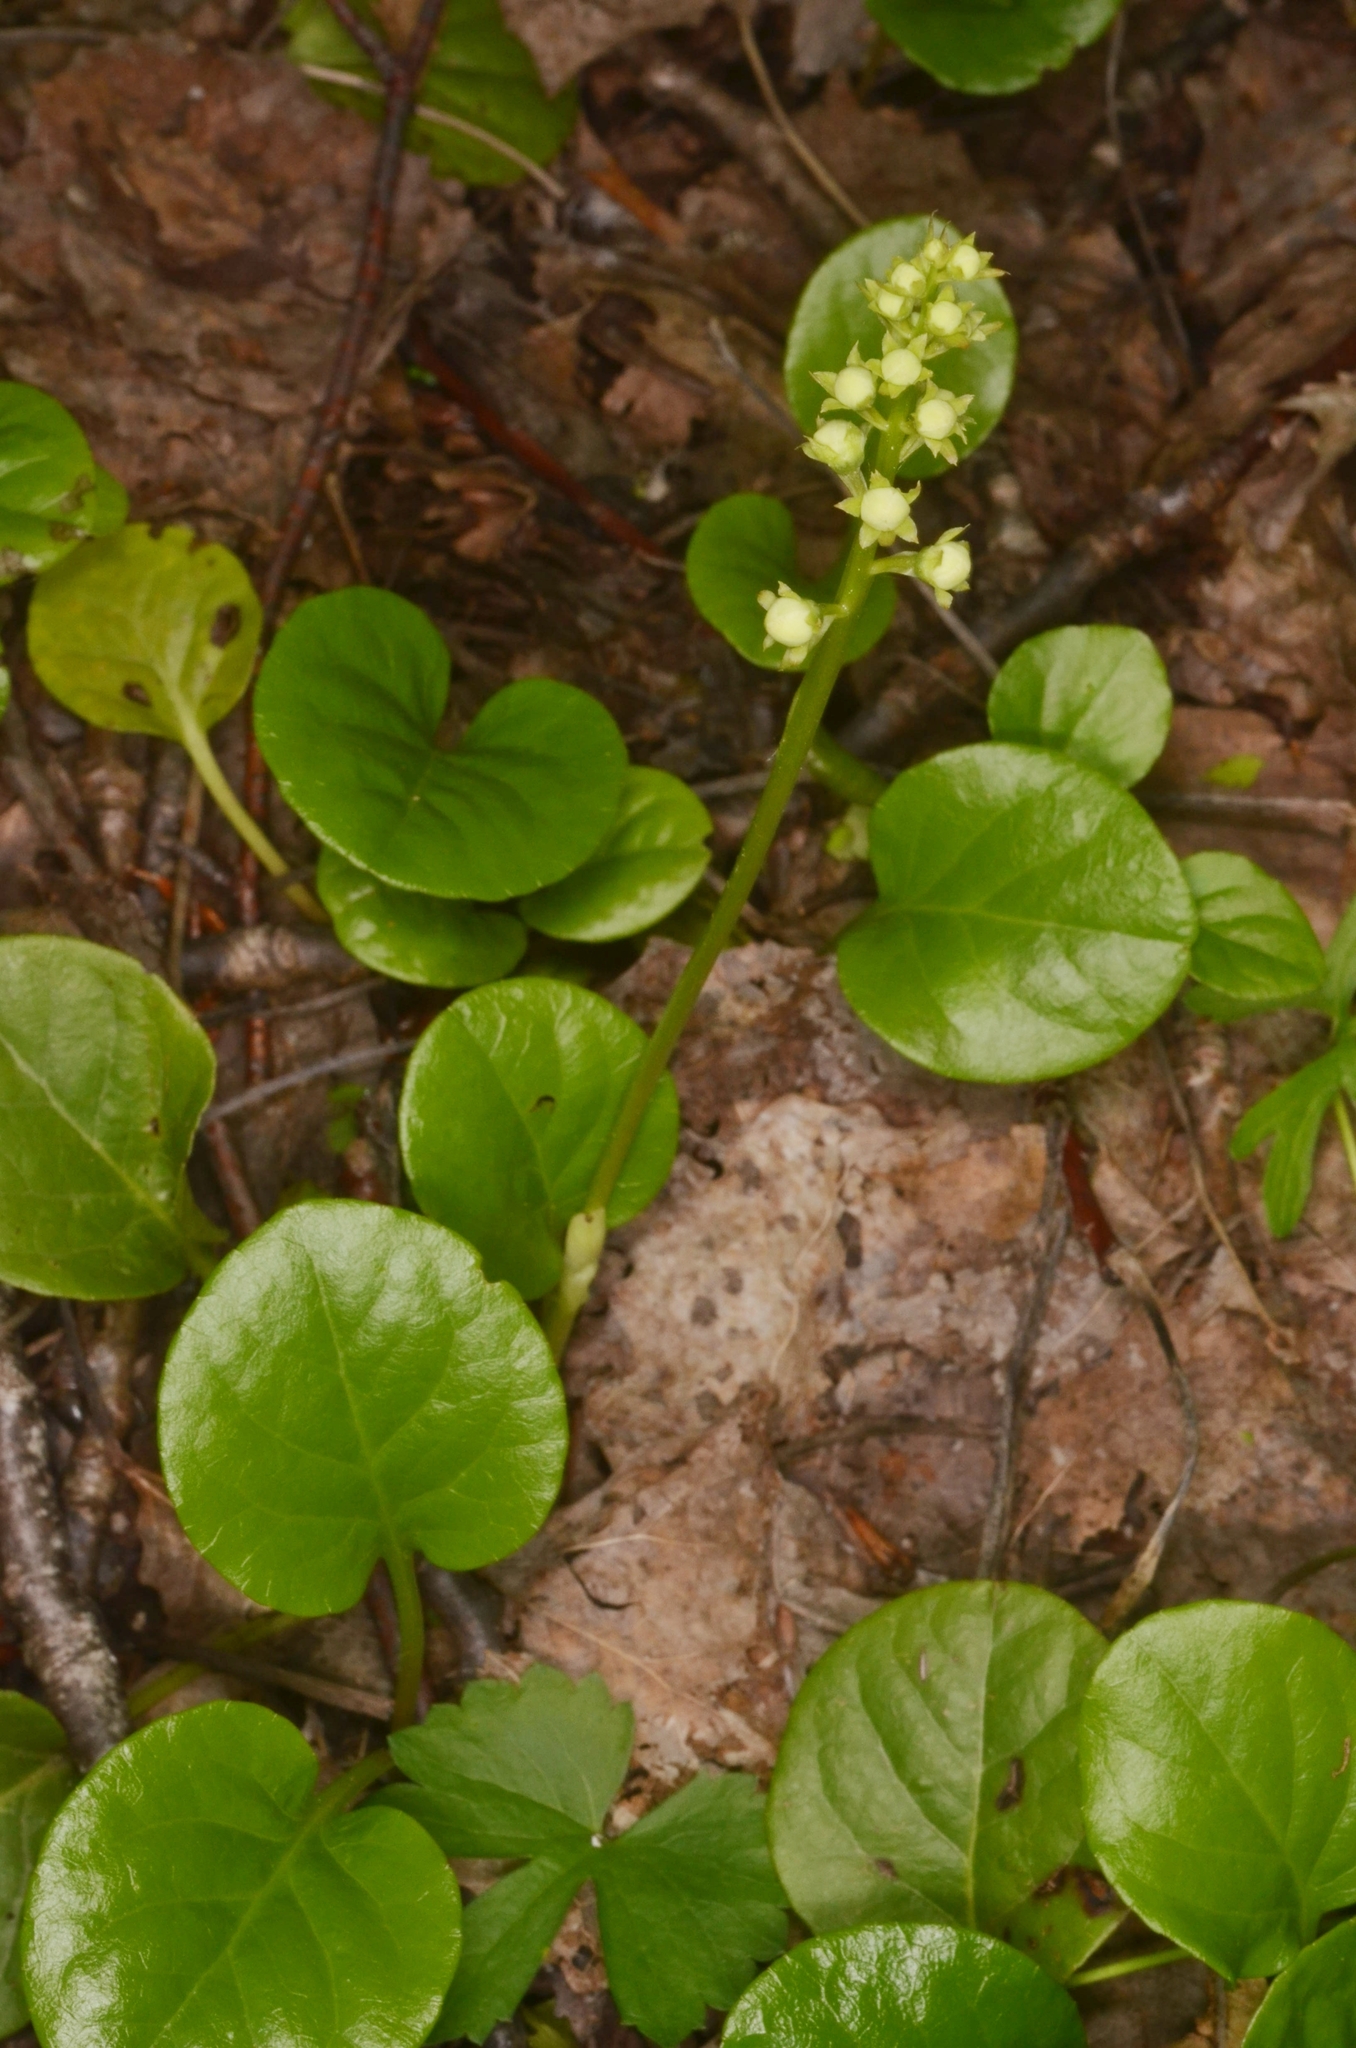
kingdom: Plantae
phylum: Tracheophyta
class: Magnoliopsida
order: Ericales
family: Ericaceae
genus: Pyrola
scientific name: Pyrola rotundifolia
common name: Round-leaved wintergreen
